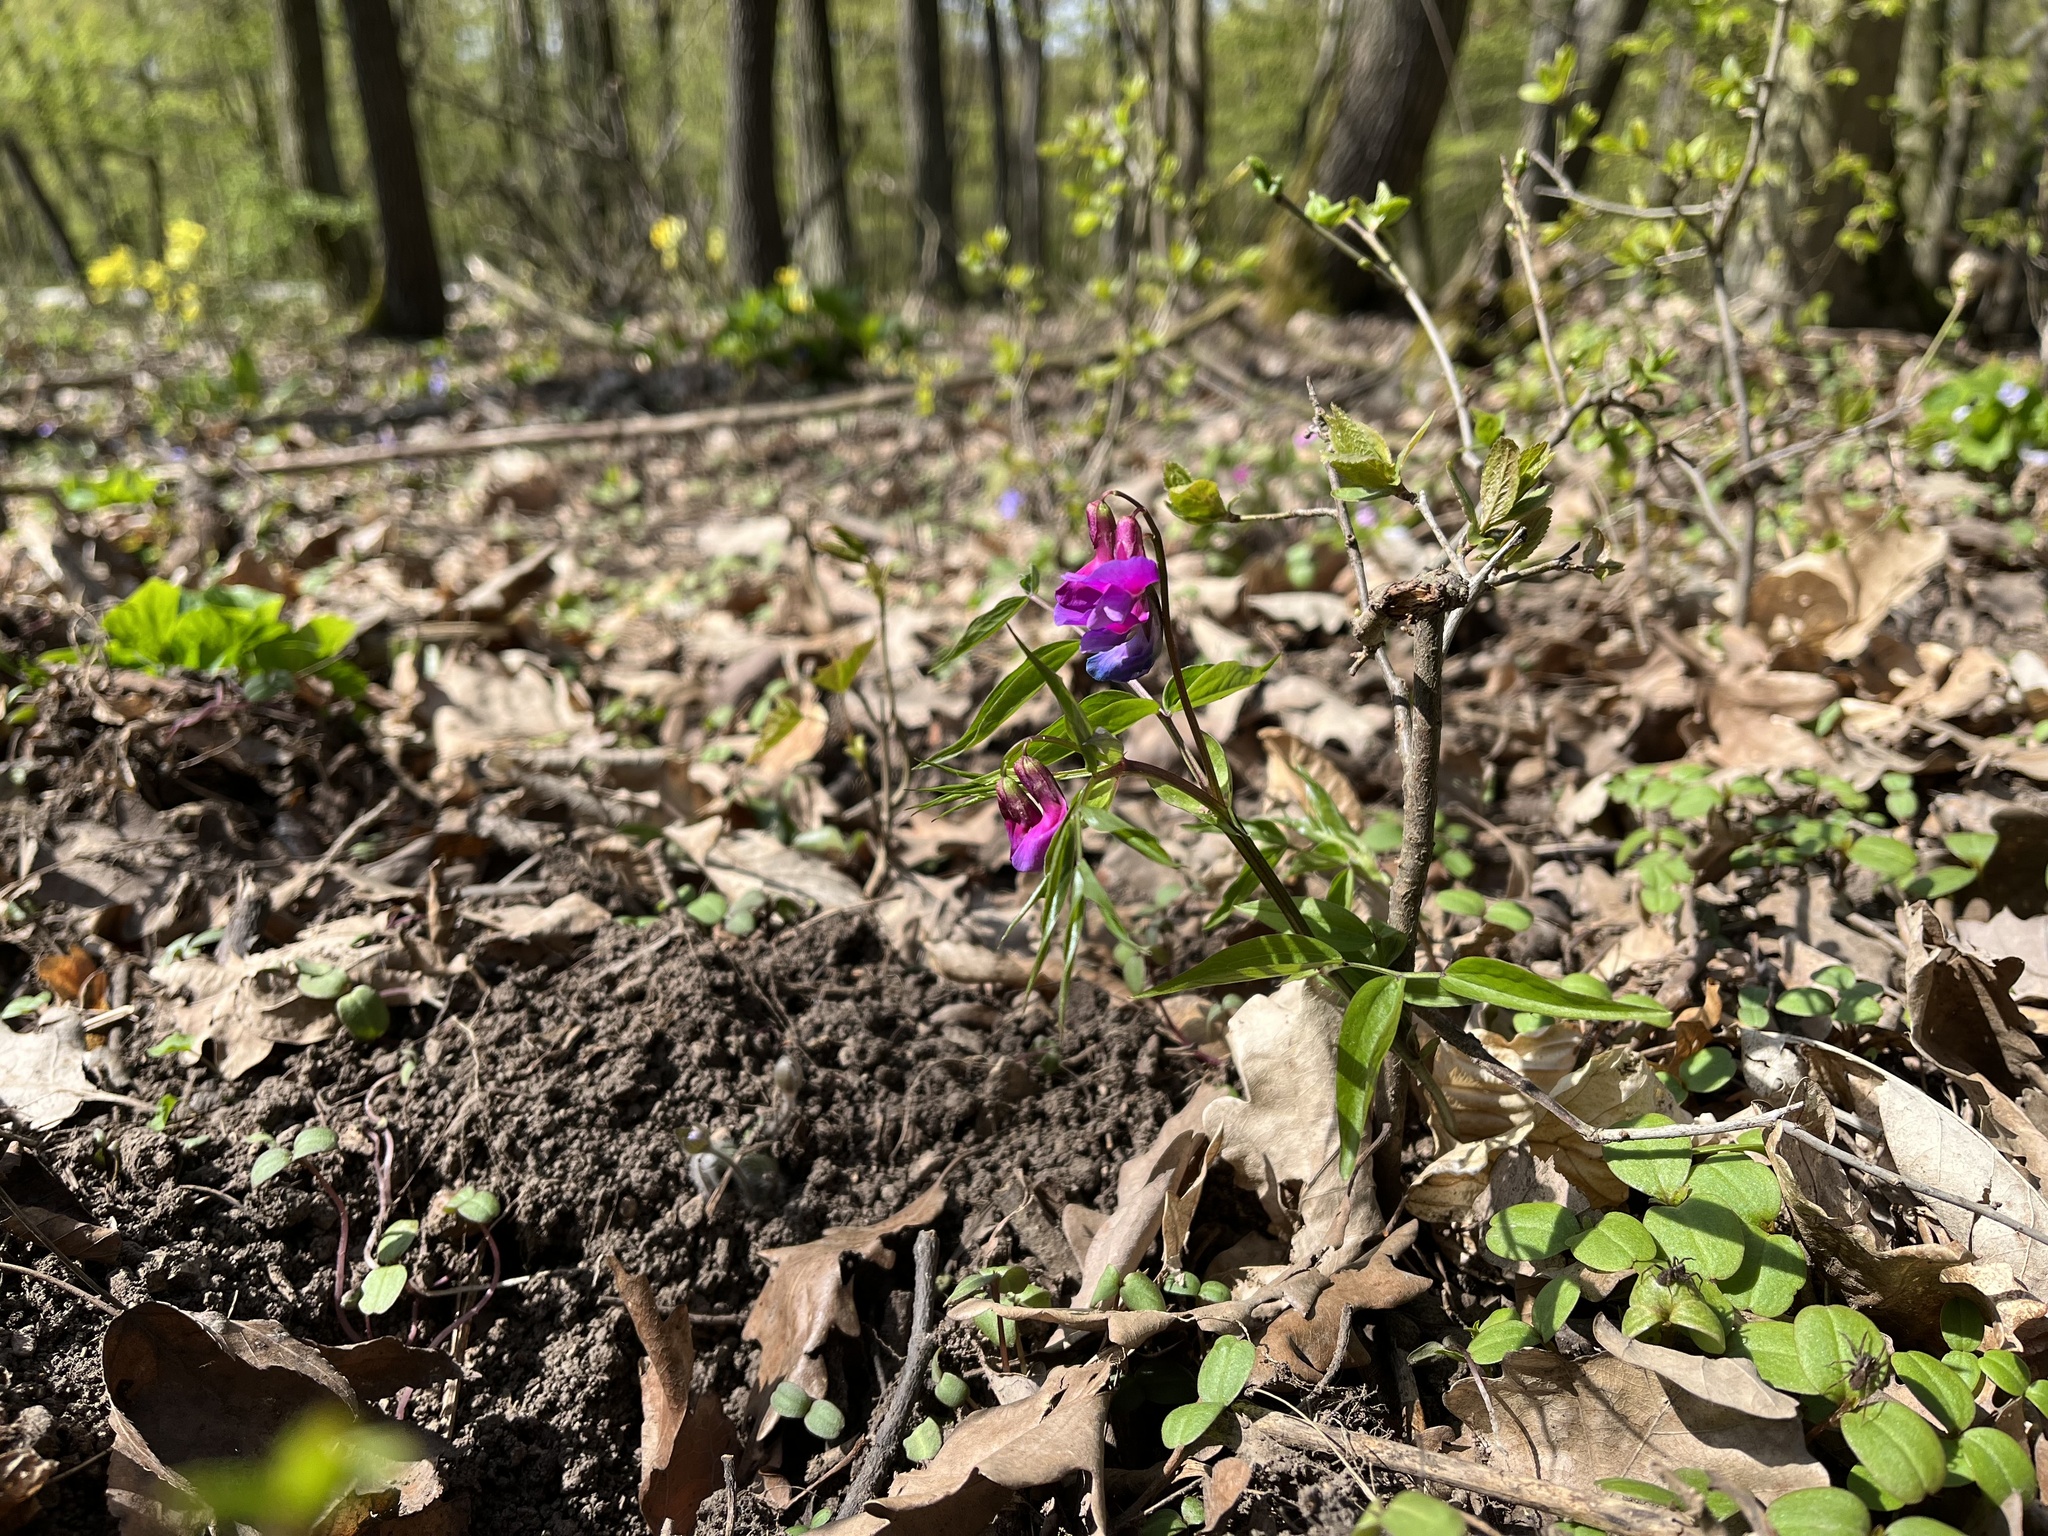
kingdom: Plantae
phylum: Tracheophyta
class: Magnoliopsida
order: Fabales
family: Fabaceae
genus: Lathyrus
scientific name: Lathyrus vernus
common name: Spring pea
